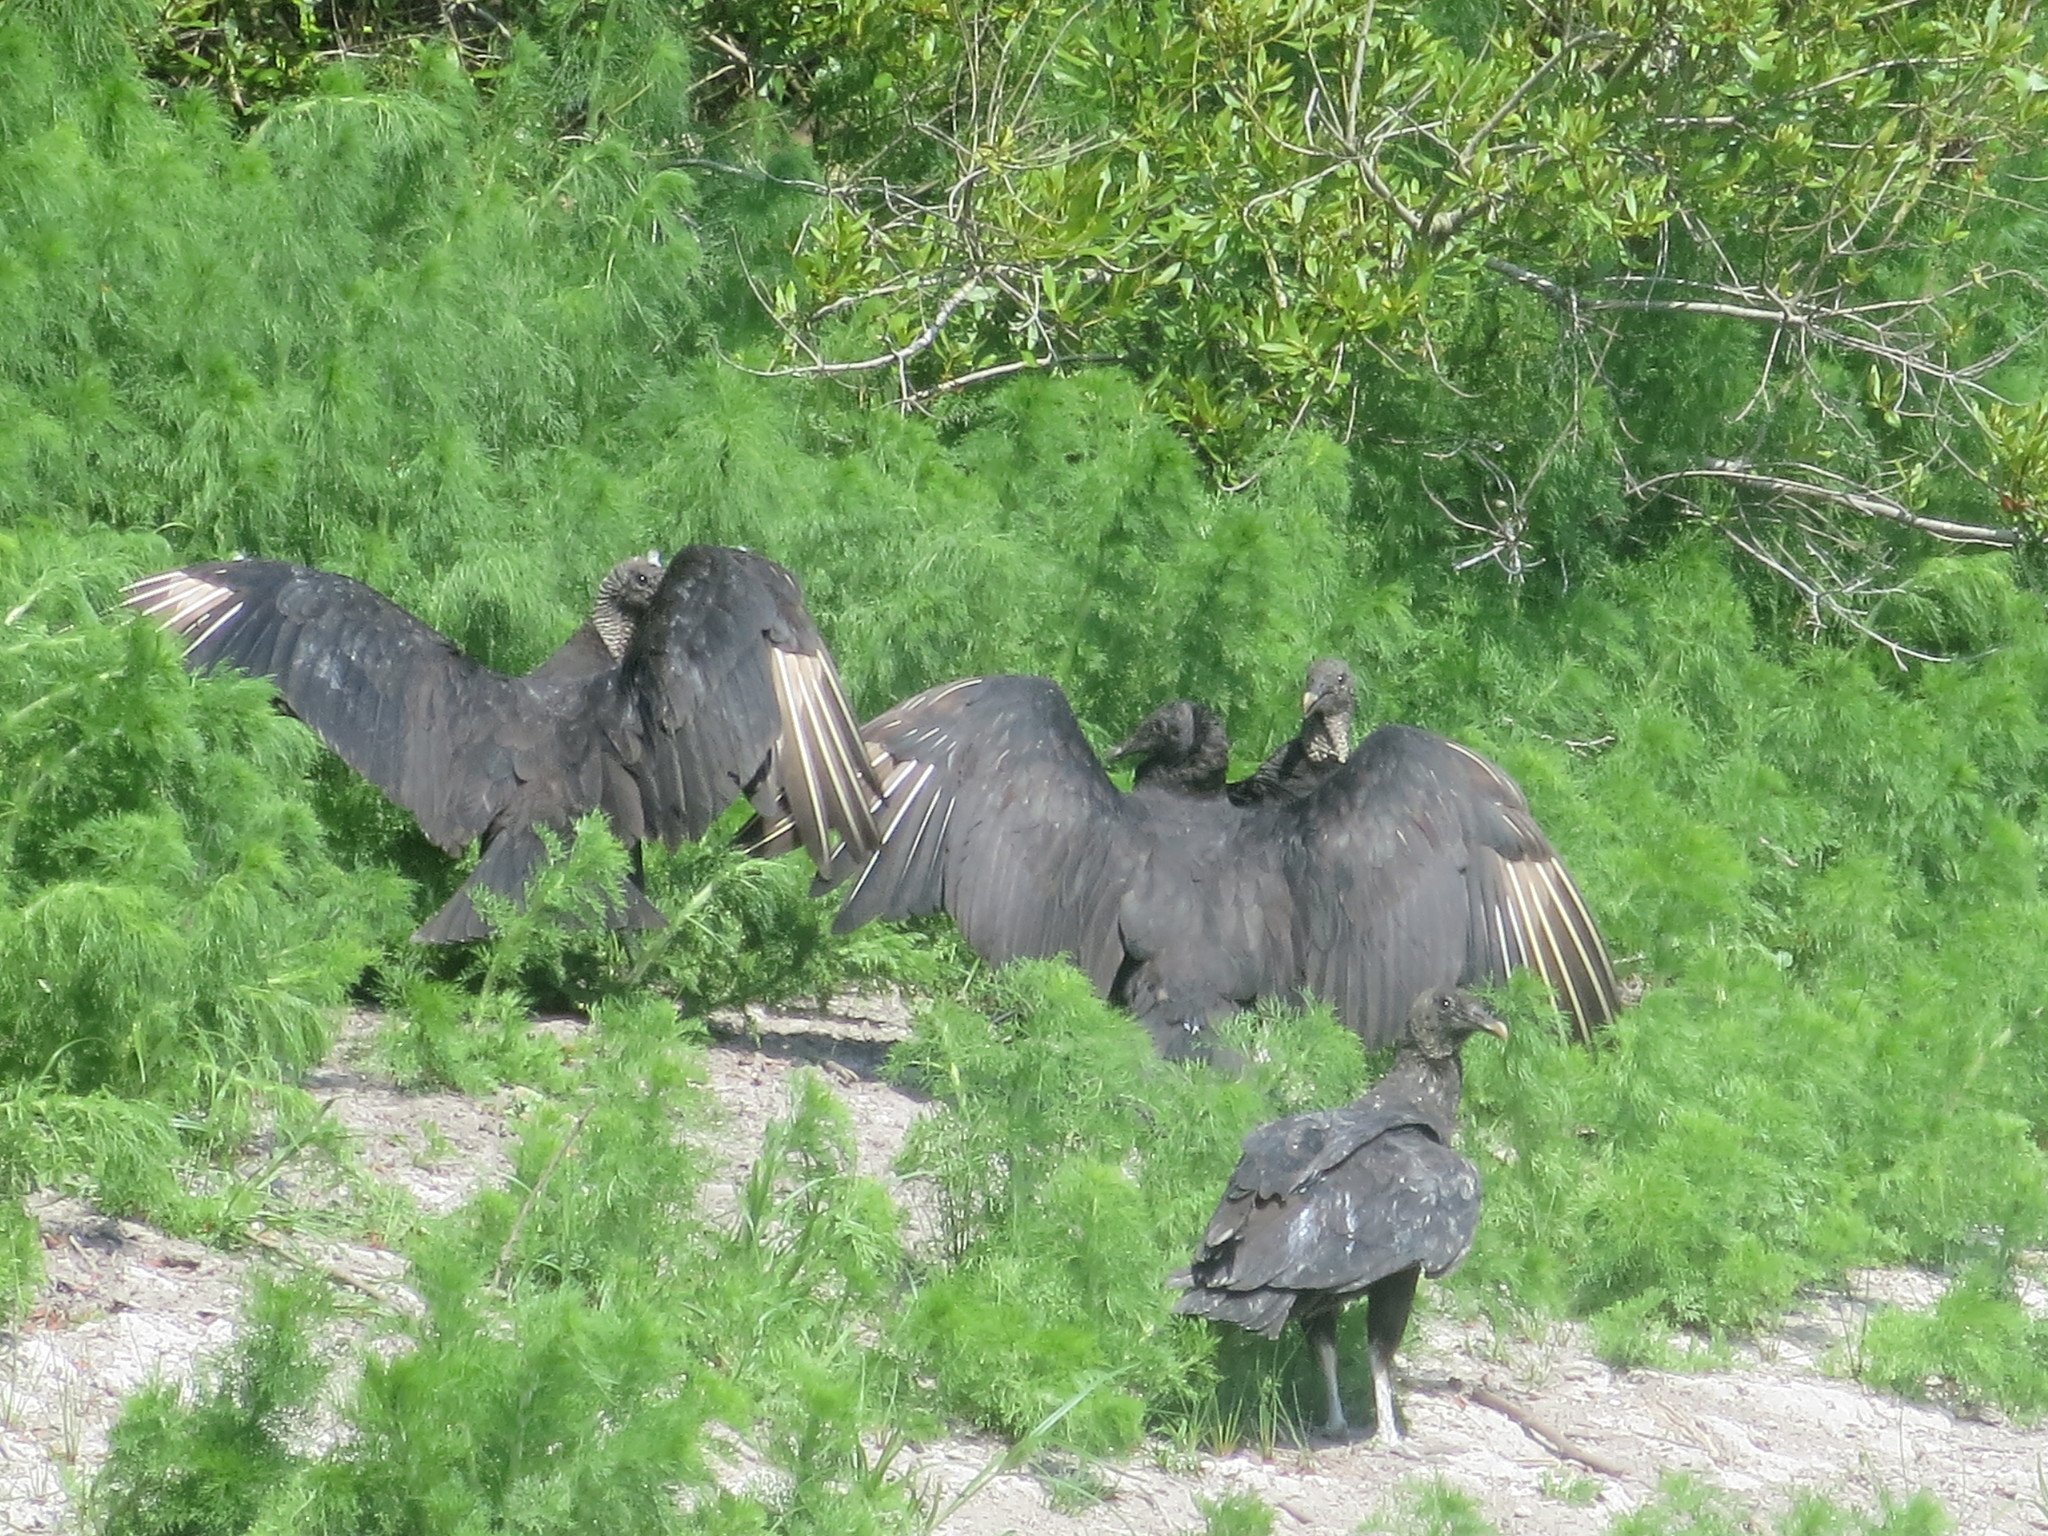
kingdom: Animalia
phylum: Chordata
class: Aves
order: Accipitriformes
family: Cathartidae
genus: Coragyps
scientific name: Coragyps atratus
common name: Black vulture
